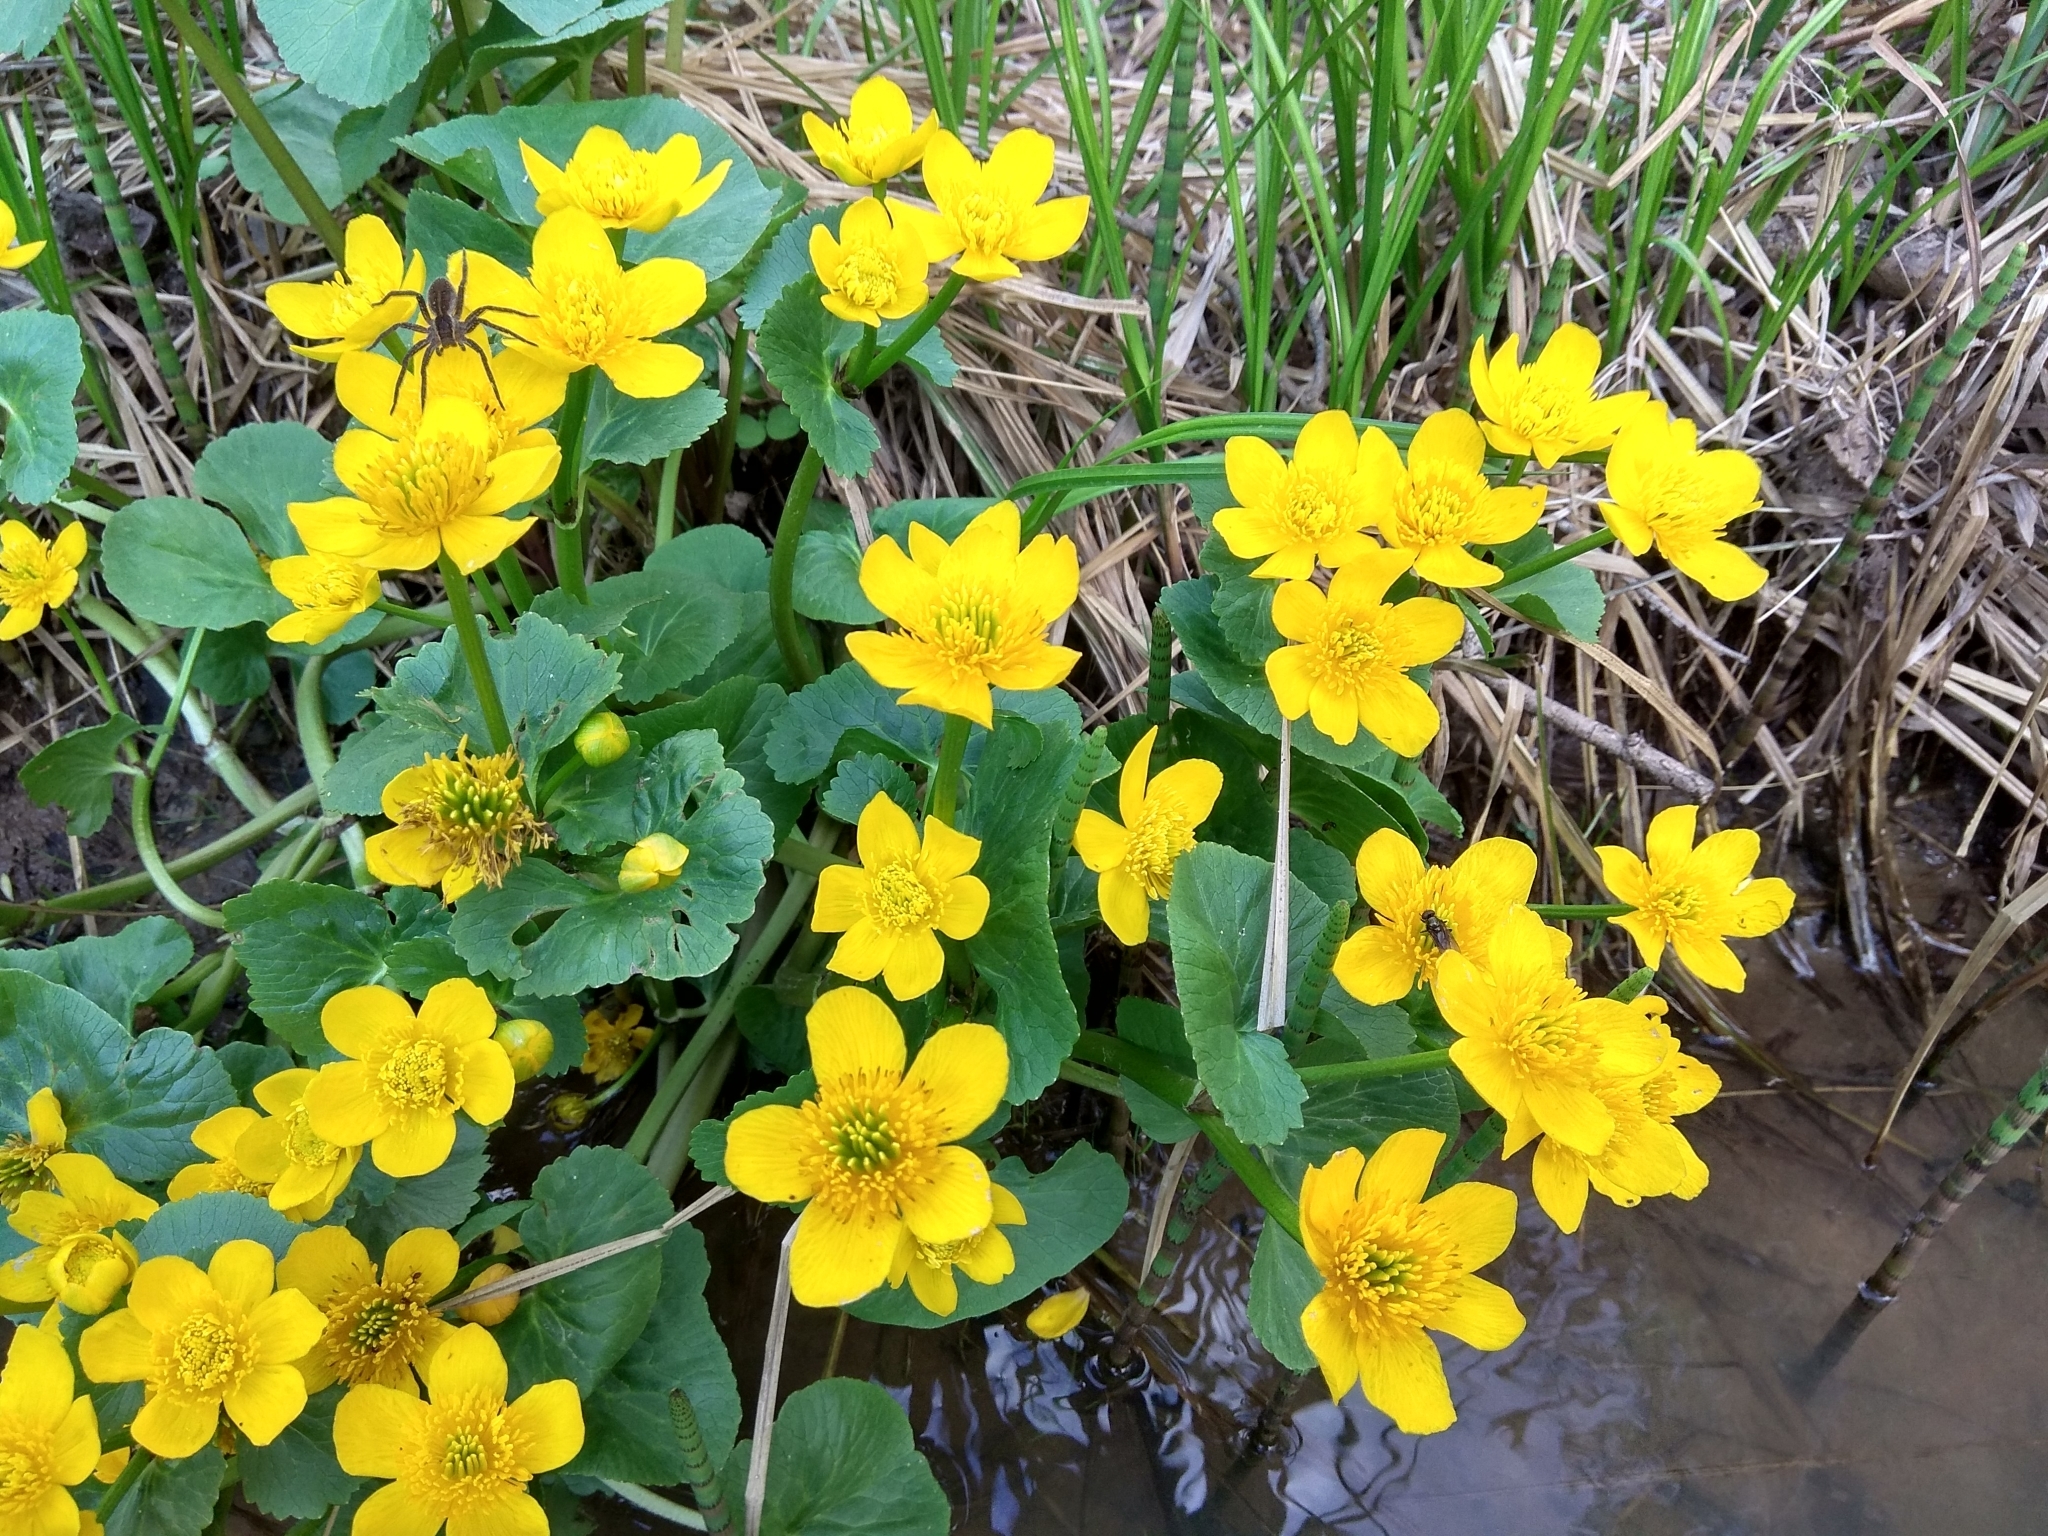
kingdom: Plantae
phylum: Tracheophyta
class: Magnoliopsida
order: Ranunculales
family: Ranunculaceae
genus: Caltha
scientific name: Caltha palustris
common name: Marsh marigold
